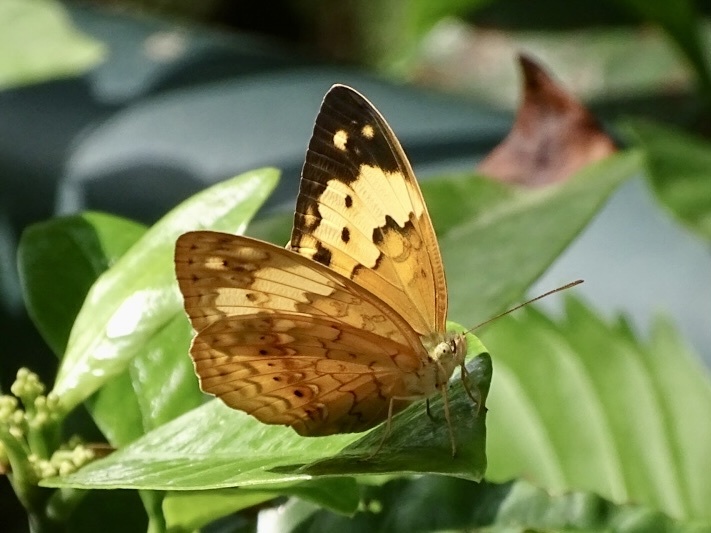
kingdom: Animalia
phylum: Arthropoda
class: Insecta
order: Lepidoptera
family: Nymphalidae
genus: Cupha
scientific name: Cupha erymanthis
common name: Rustic
